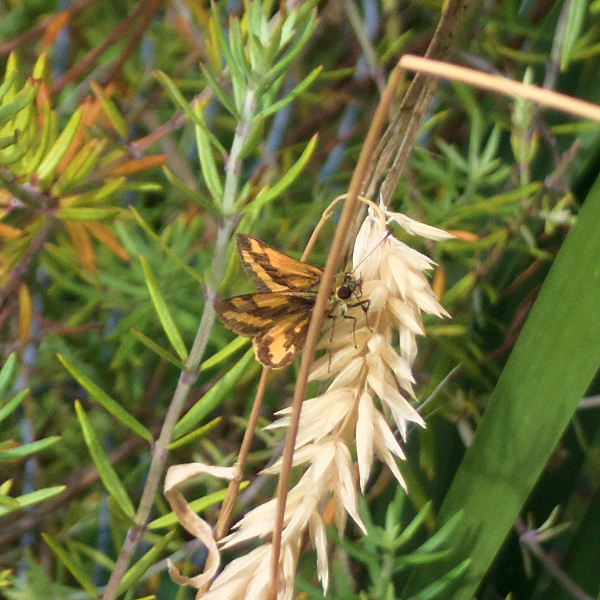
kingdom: Animalia
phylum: Arthropoda
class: Insecta
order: Lepidoptera
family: Hesperiidae
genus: Ocybadistes
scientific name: Ocybadistes walkeri
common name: Yellow-banded dart
